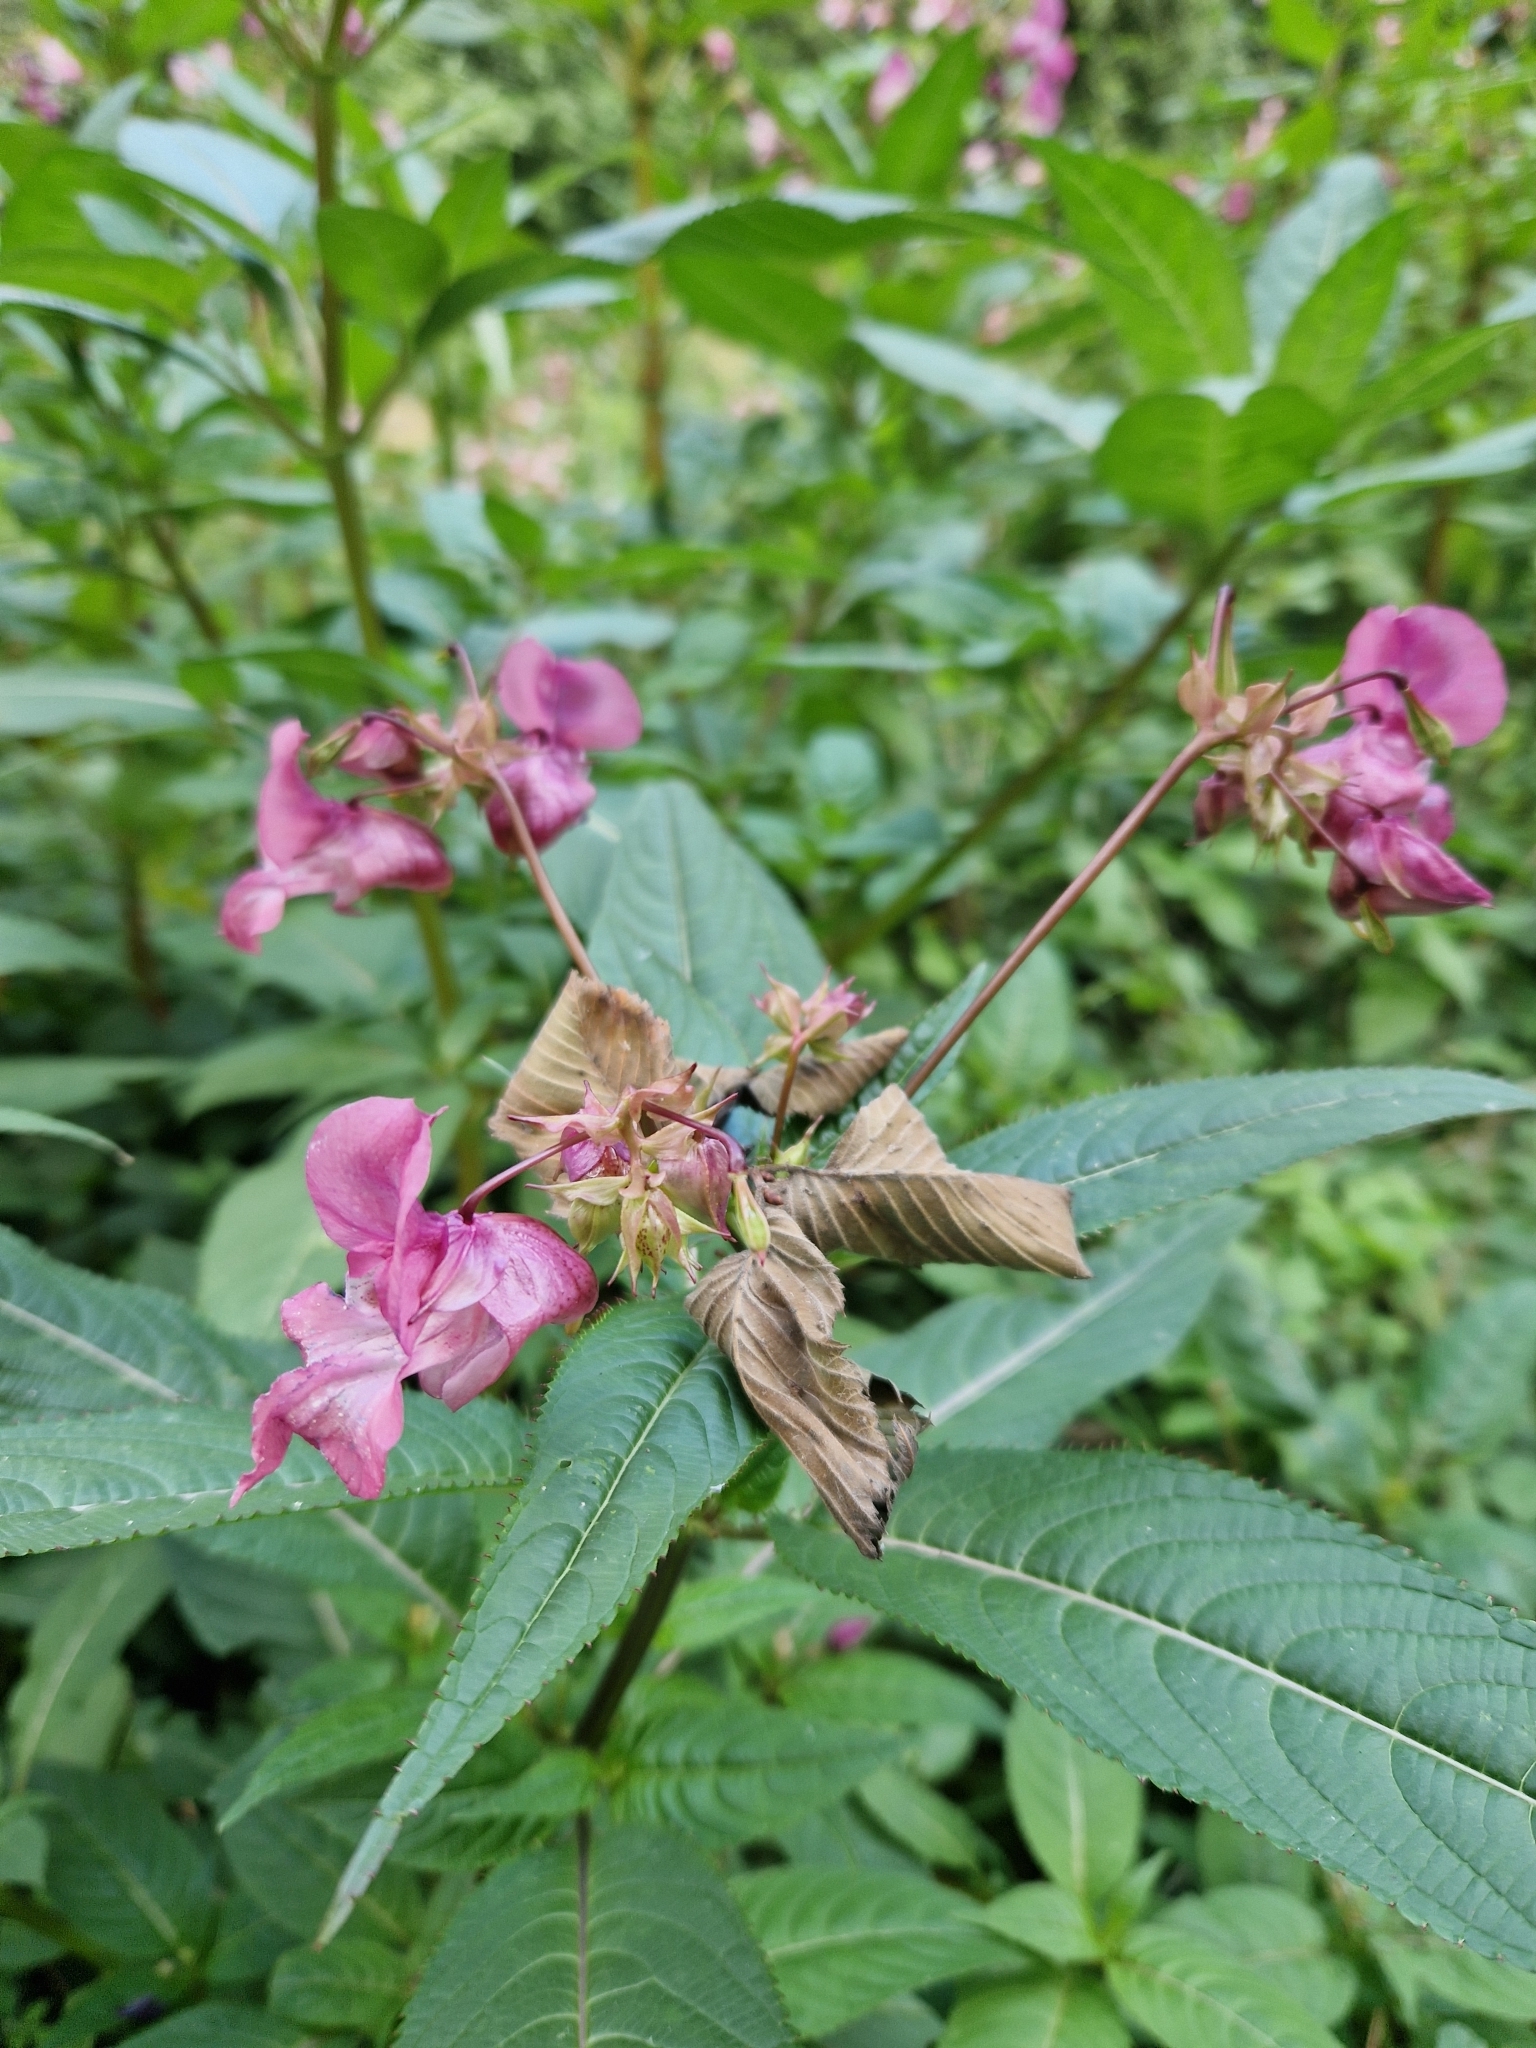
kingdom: Plantae
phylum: Tracheophyta
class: Magnoliopsida
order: Ericales
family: Balsaminaceae
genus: Impatiens
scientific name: Impatiens glandulifera
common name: Himalayan balsam
